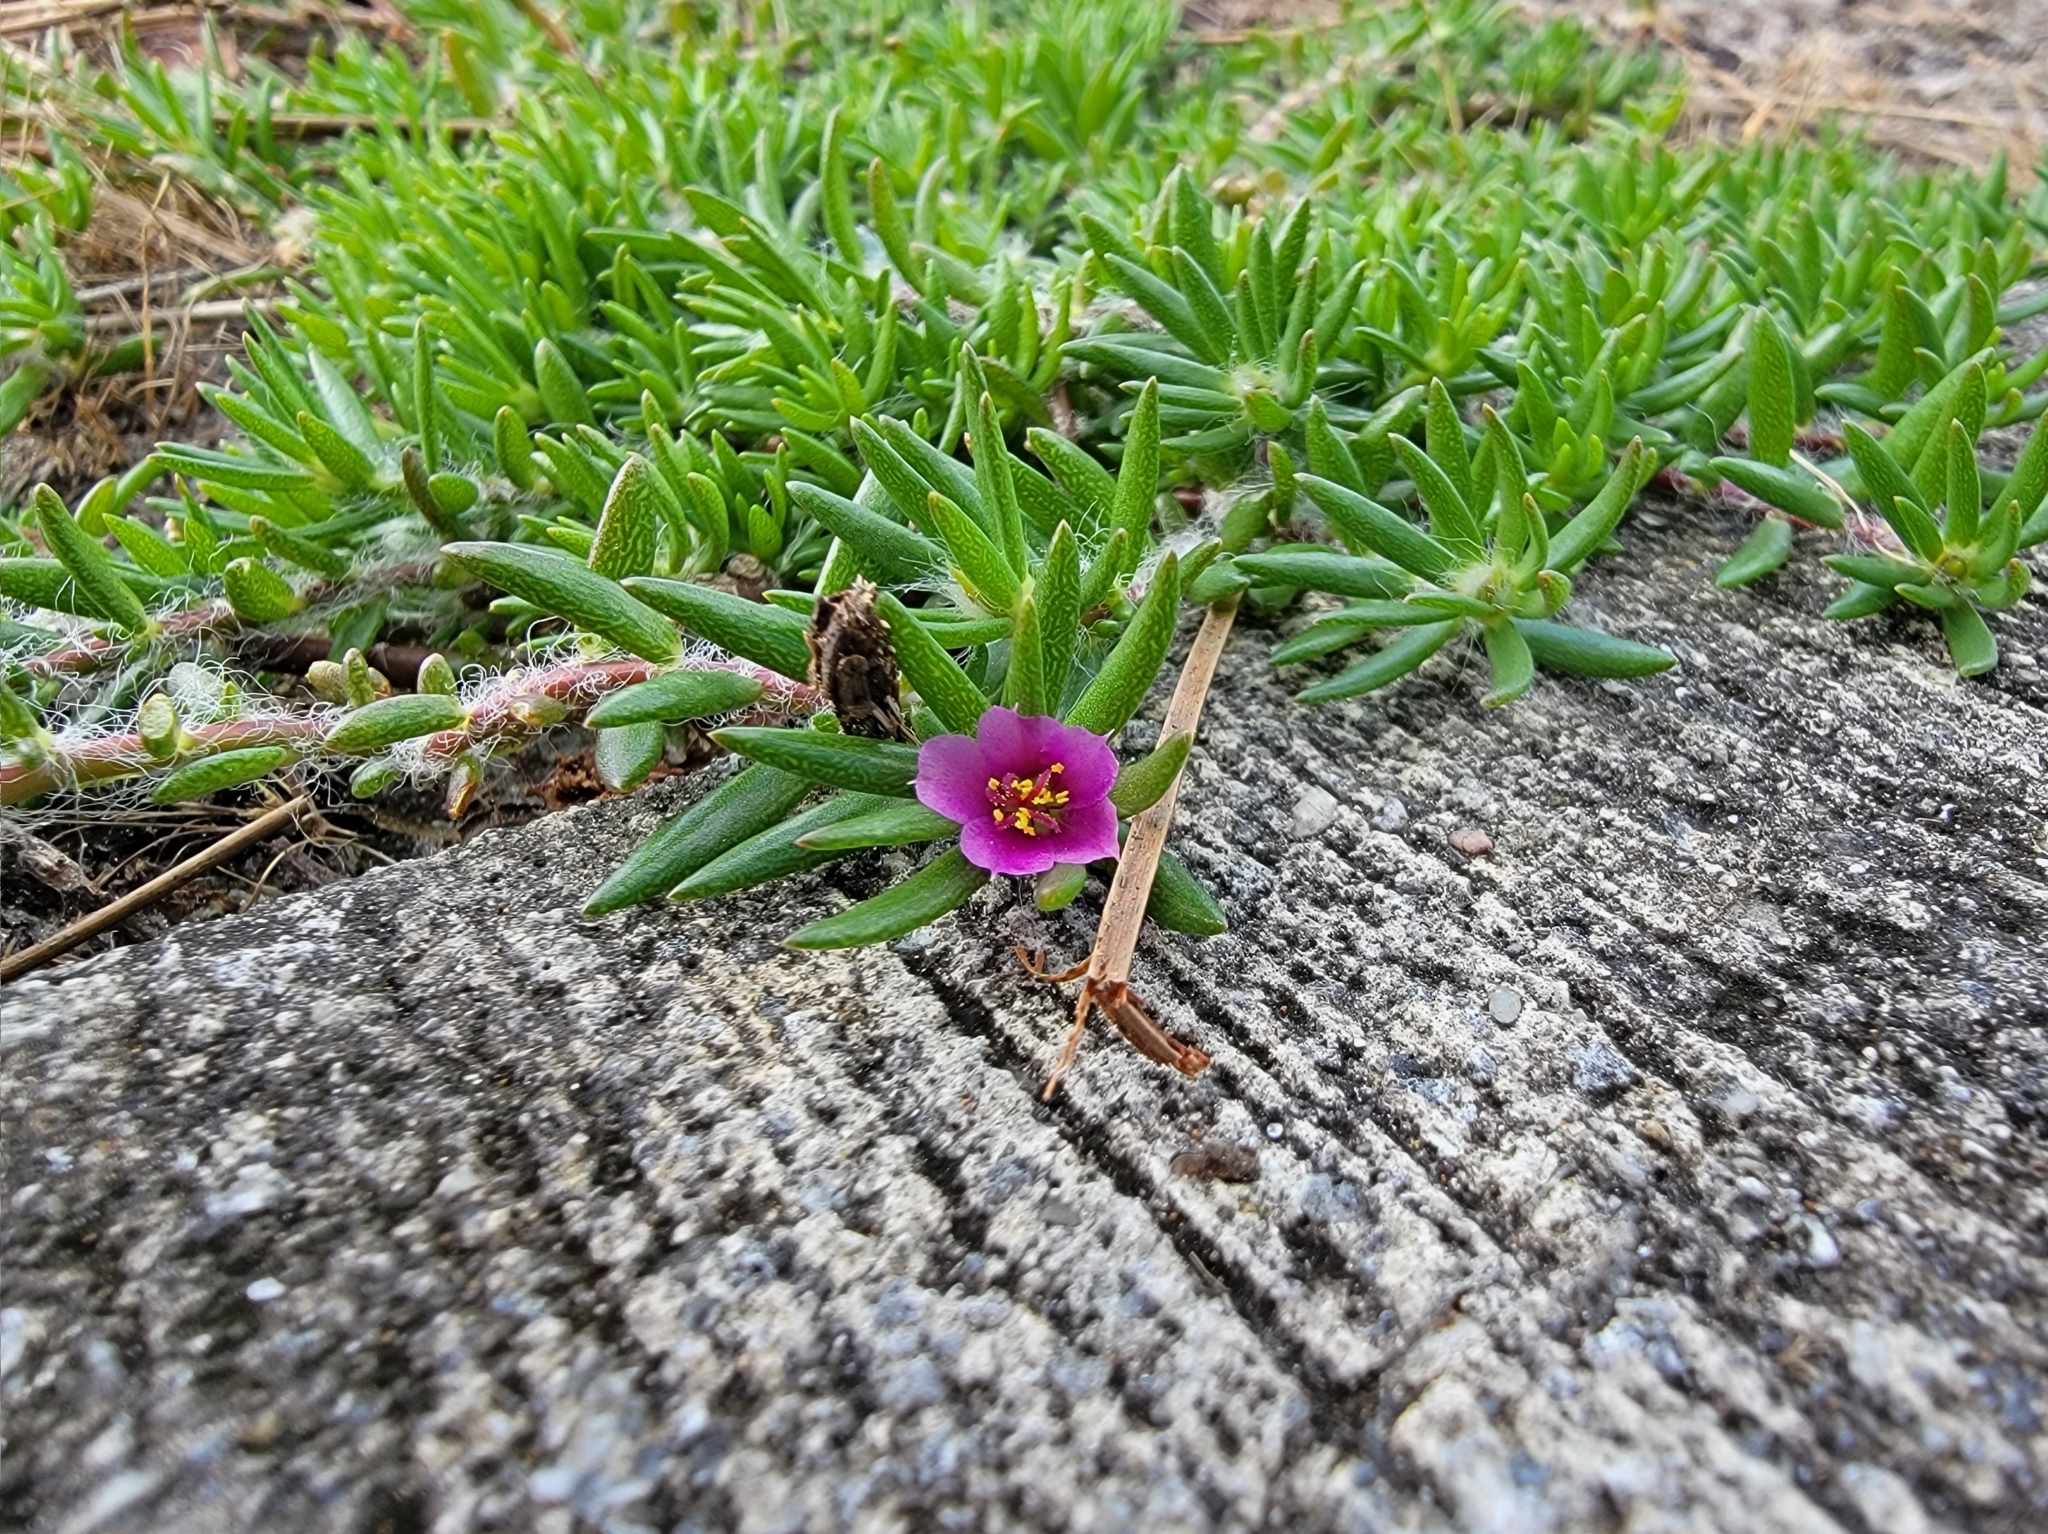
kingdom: Plantae
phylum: Tracheophyta
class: Magnoliopsida
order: Caryophyllales
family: Portulacaceae
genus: Portulaca
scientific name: Portulaca pilosa
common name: Kiss me quick
